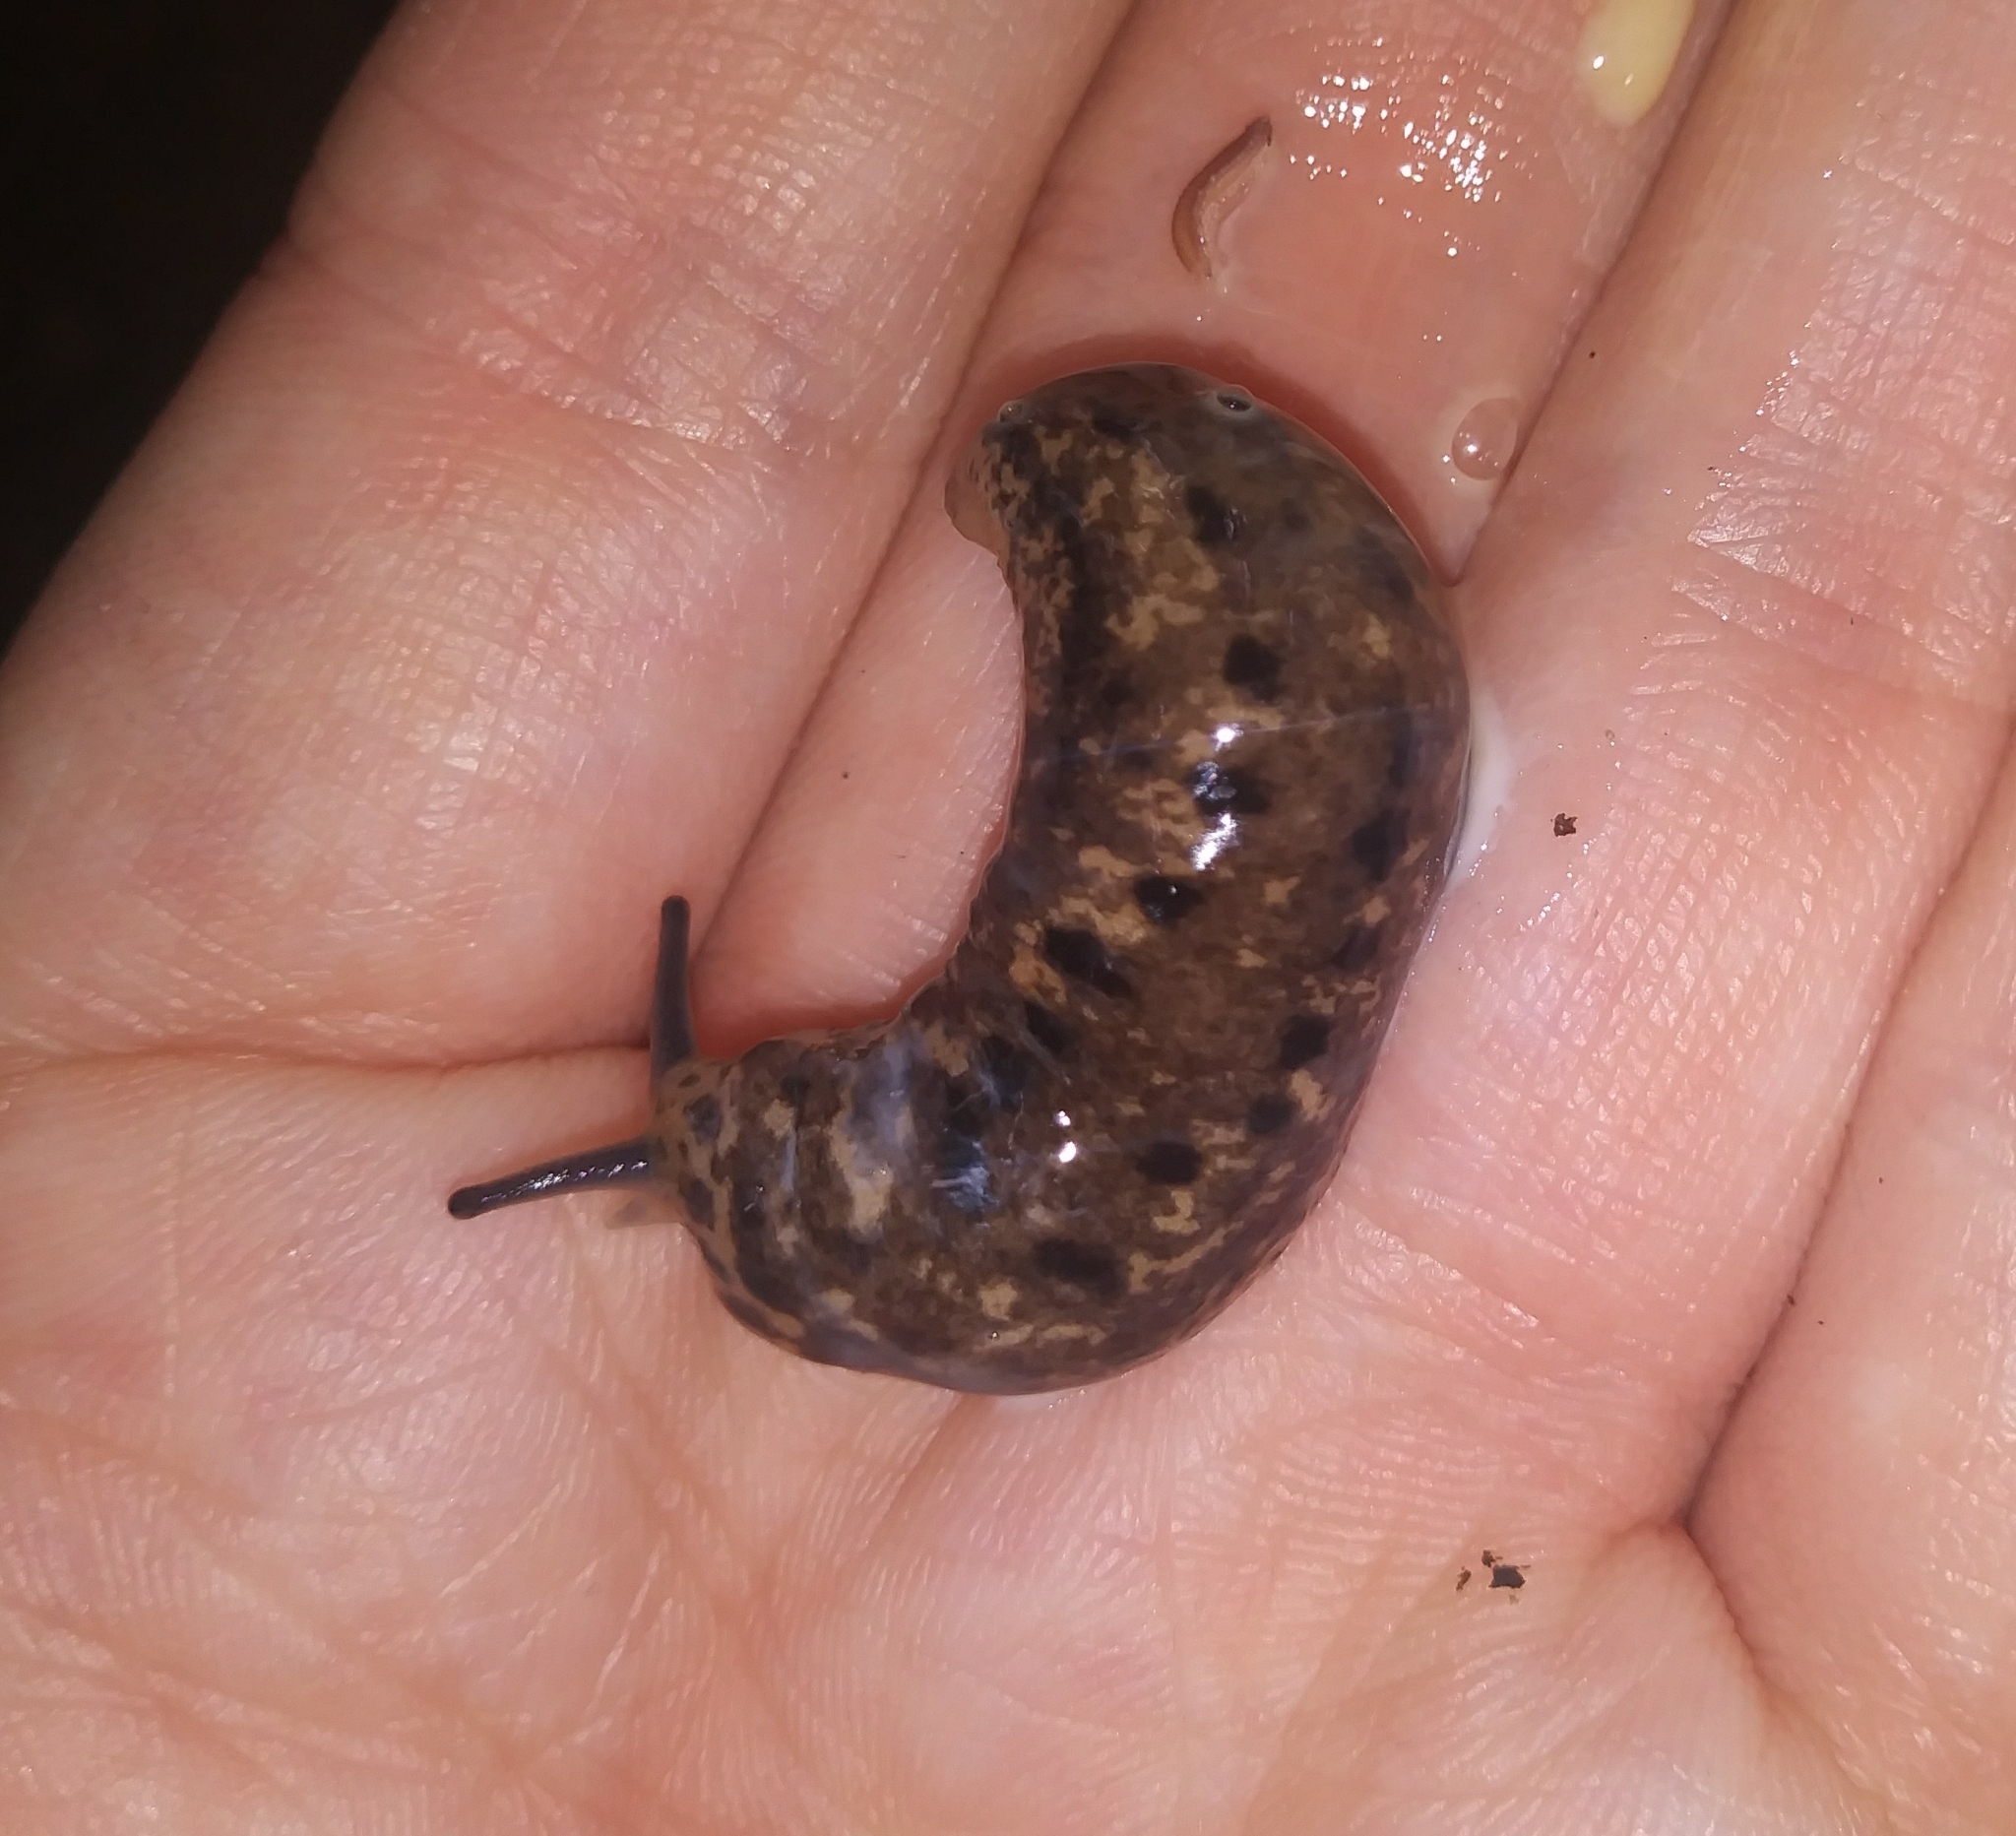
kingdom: Animalia
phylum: Mollusca
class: Gastropoda
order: Stylommatophora
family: Philomycidae
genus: Philomycus
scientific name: Philomycus carolinianus
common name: Carolina mantleslug
